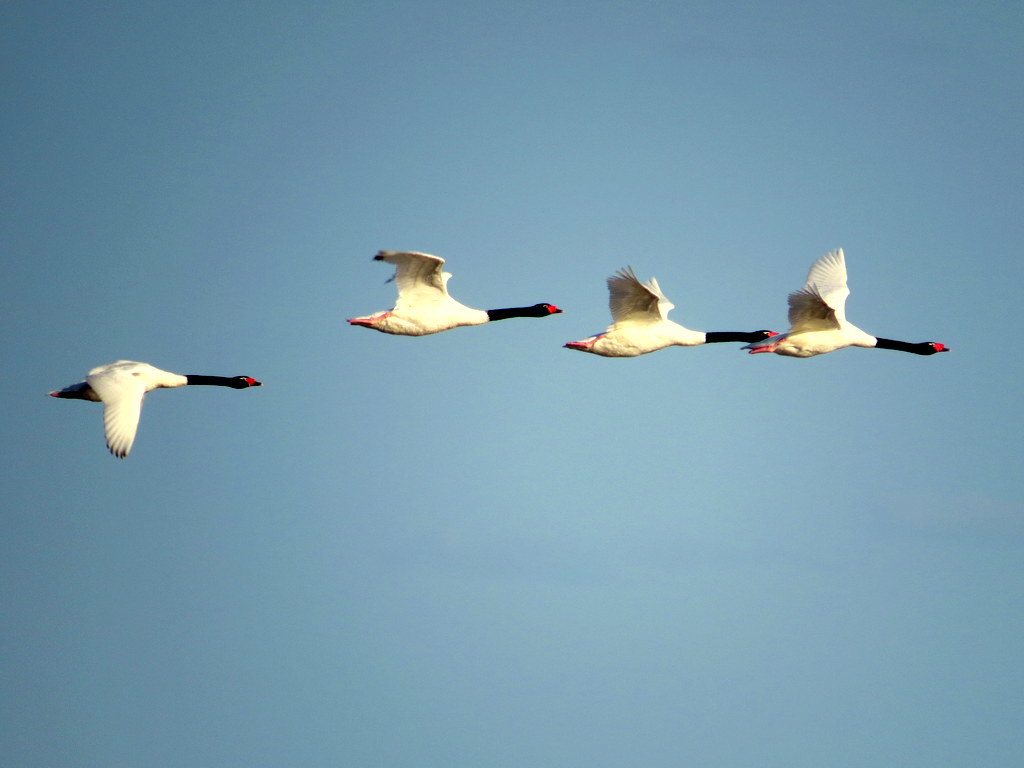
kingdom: Animalia
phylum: Chordata
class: Aves
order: Anseriformes
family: Anatidae
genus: Cygnus
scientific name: Cygnus melancoryphus
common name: Black-necked swan
